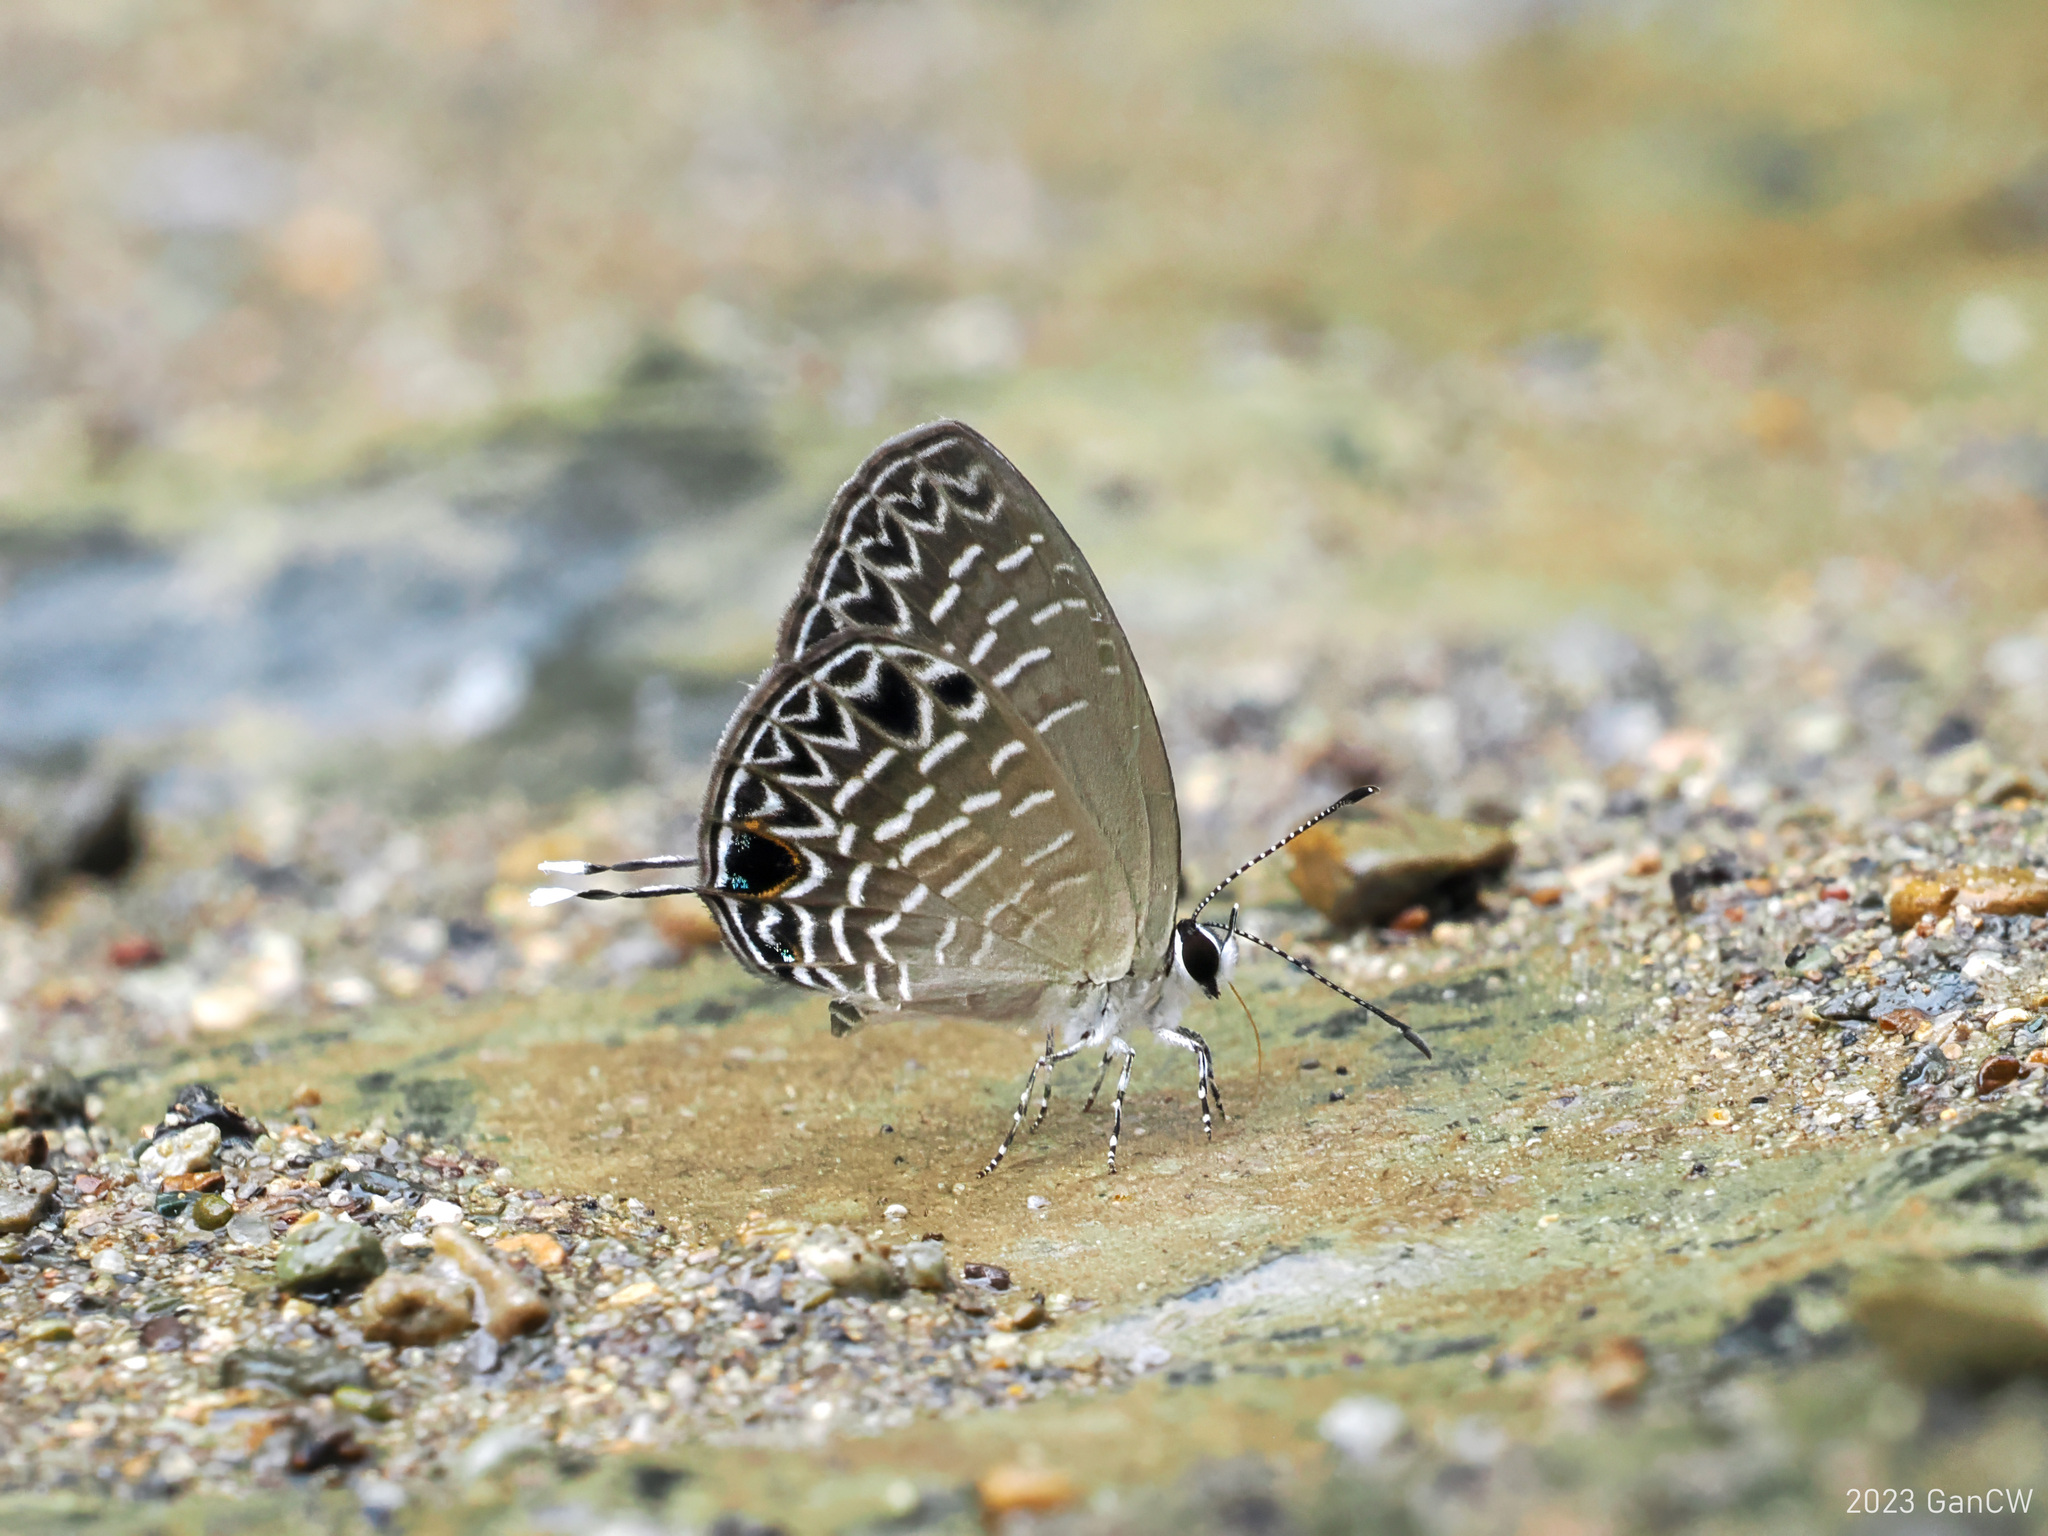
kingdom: Animalia
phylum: Arthropoda
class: Insecta
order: Lepidoptera
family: Lycaenidae
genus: Jamides
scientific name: Jamides
